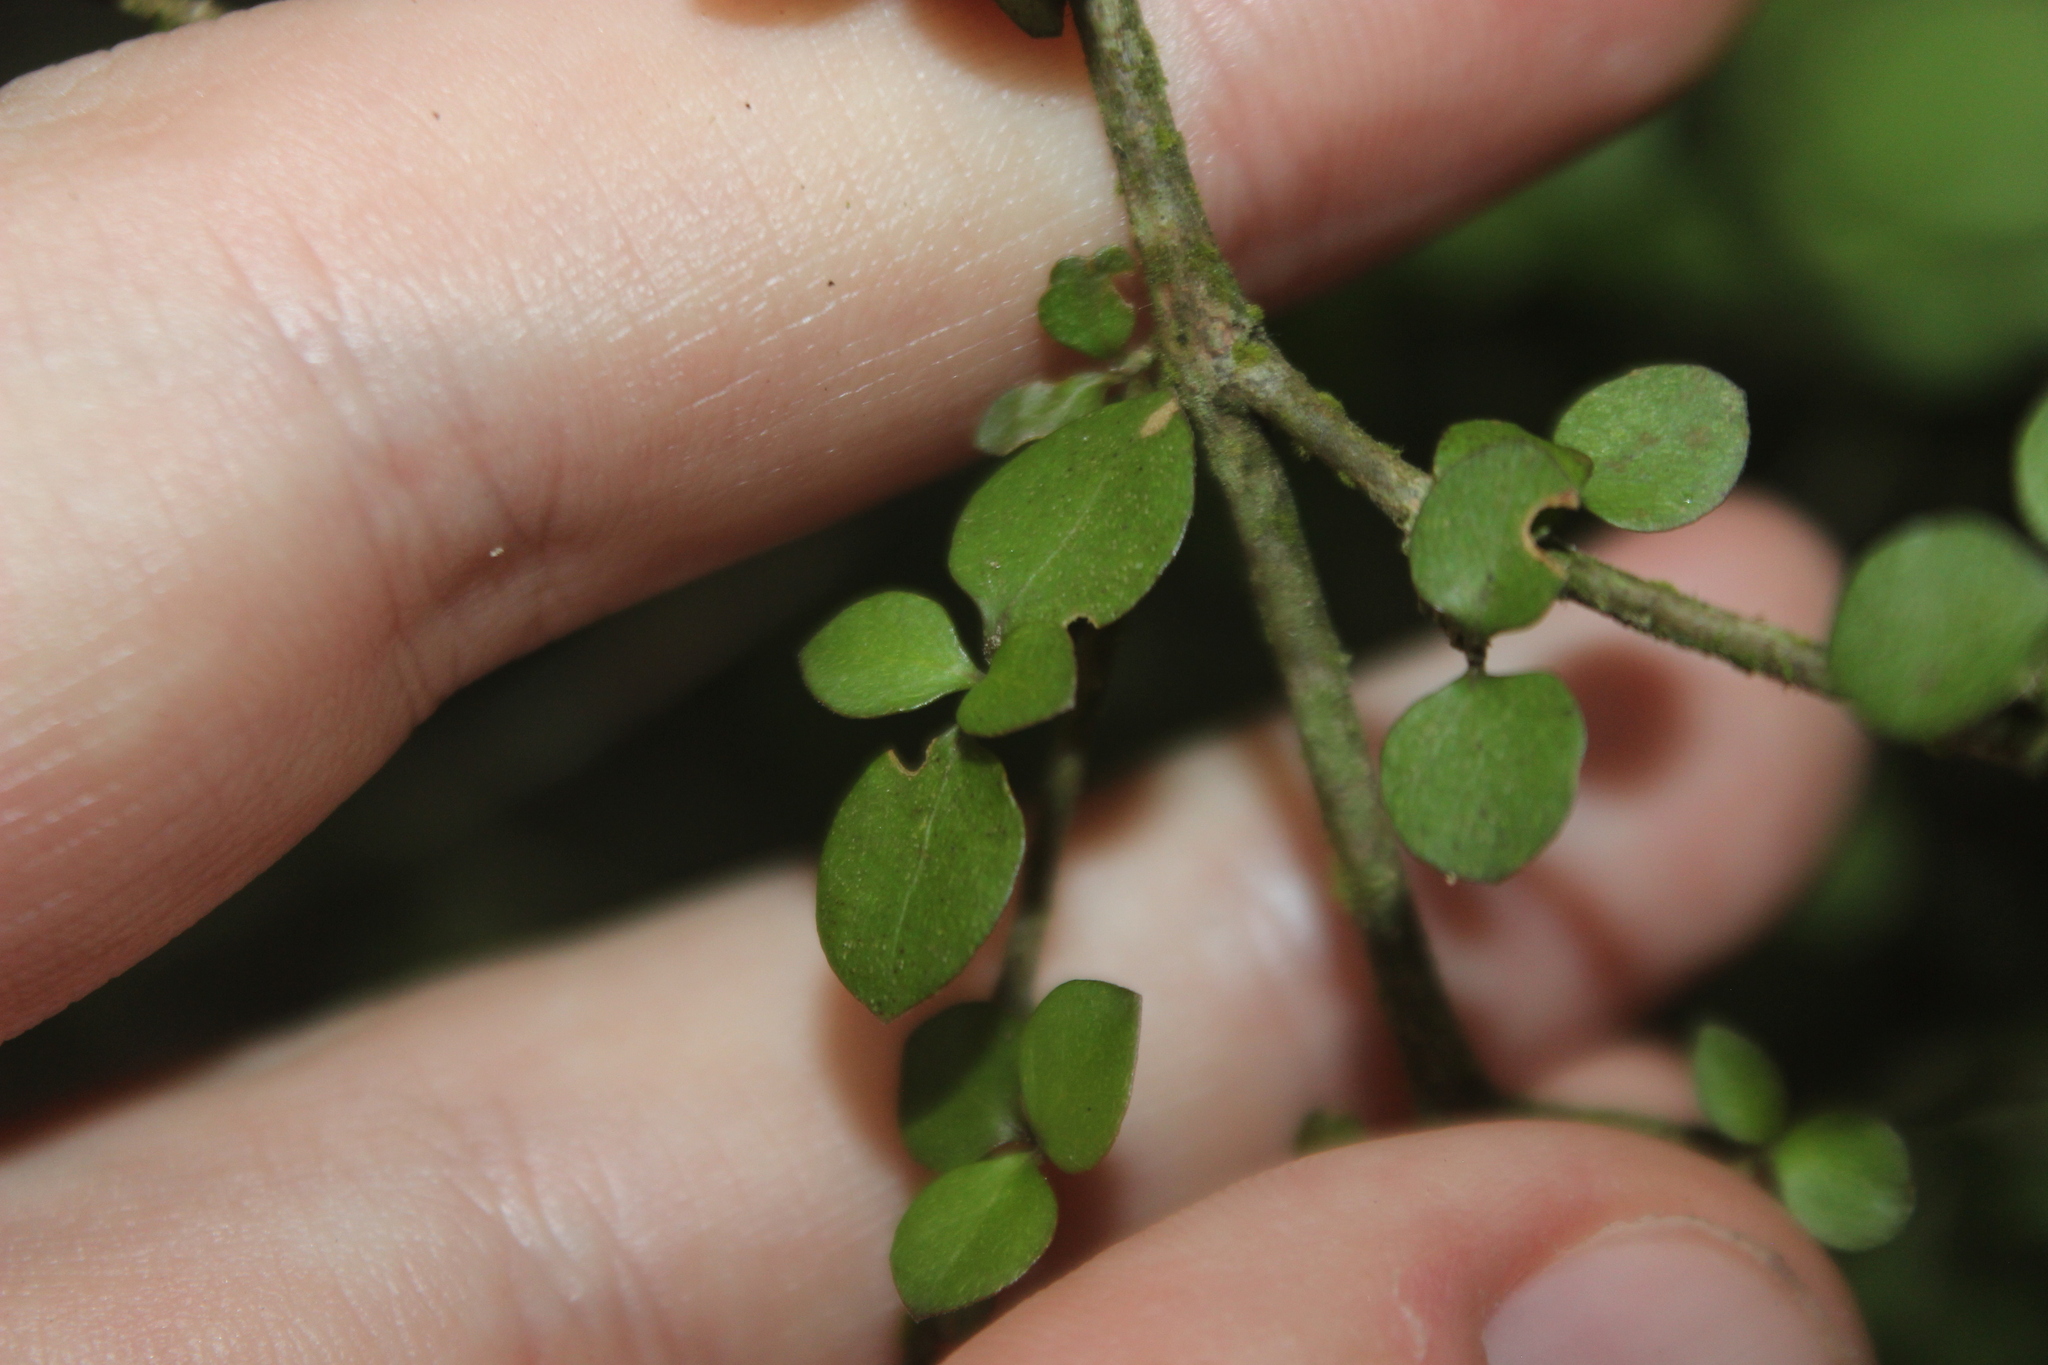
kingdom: Plantae
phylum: Tracheophyta
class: Magnoliopsida
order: Gentianales
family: Rubiaceae
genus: Coprosma
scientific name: Coprosma rubra
